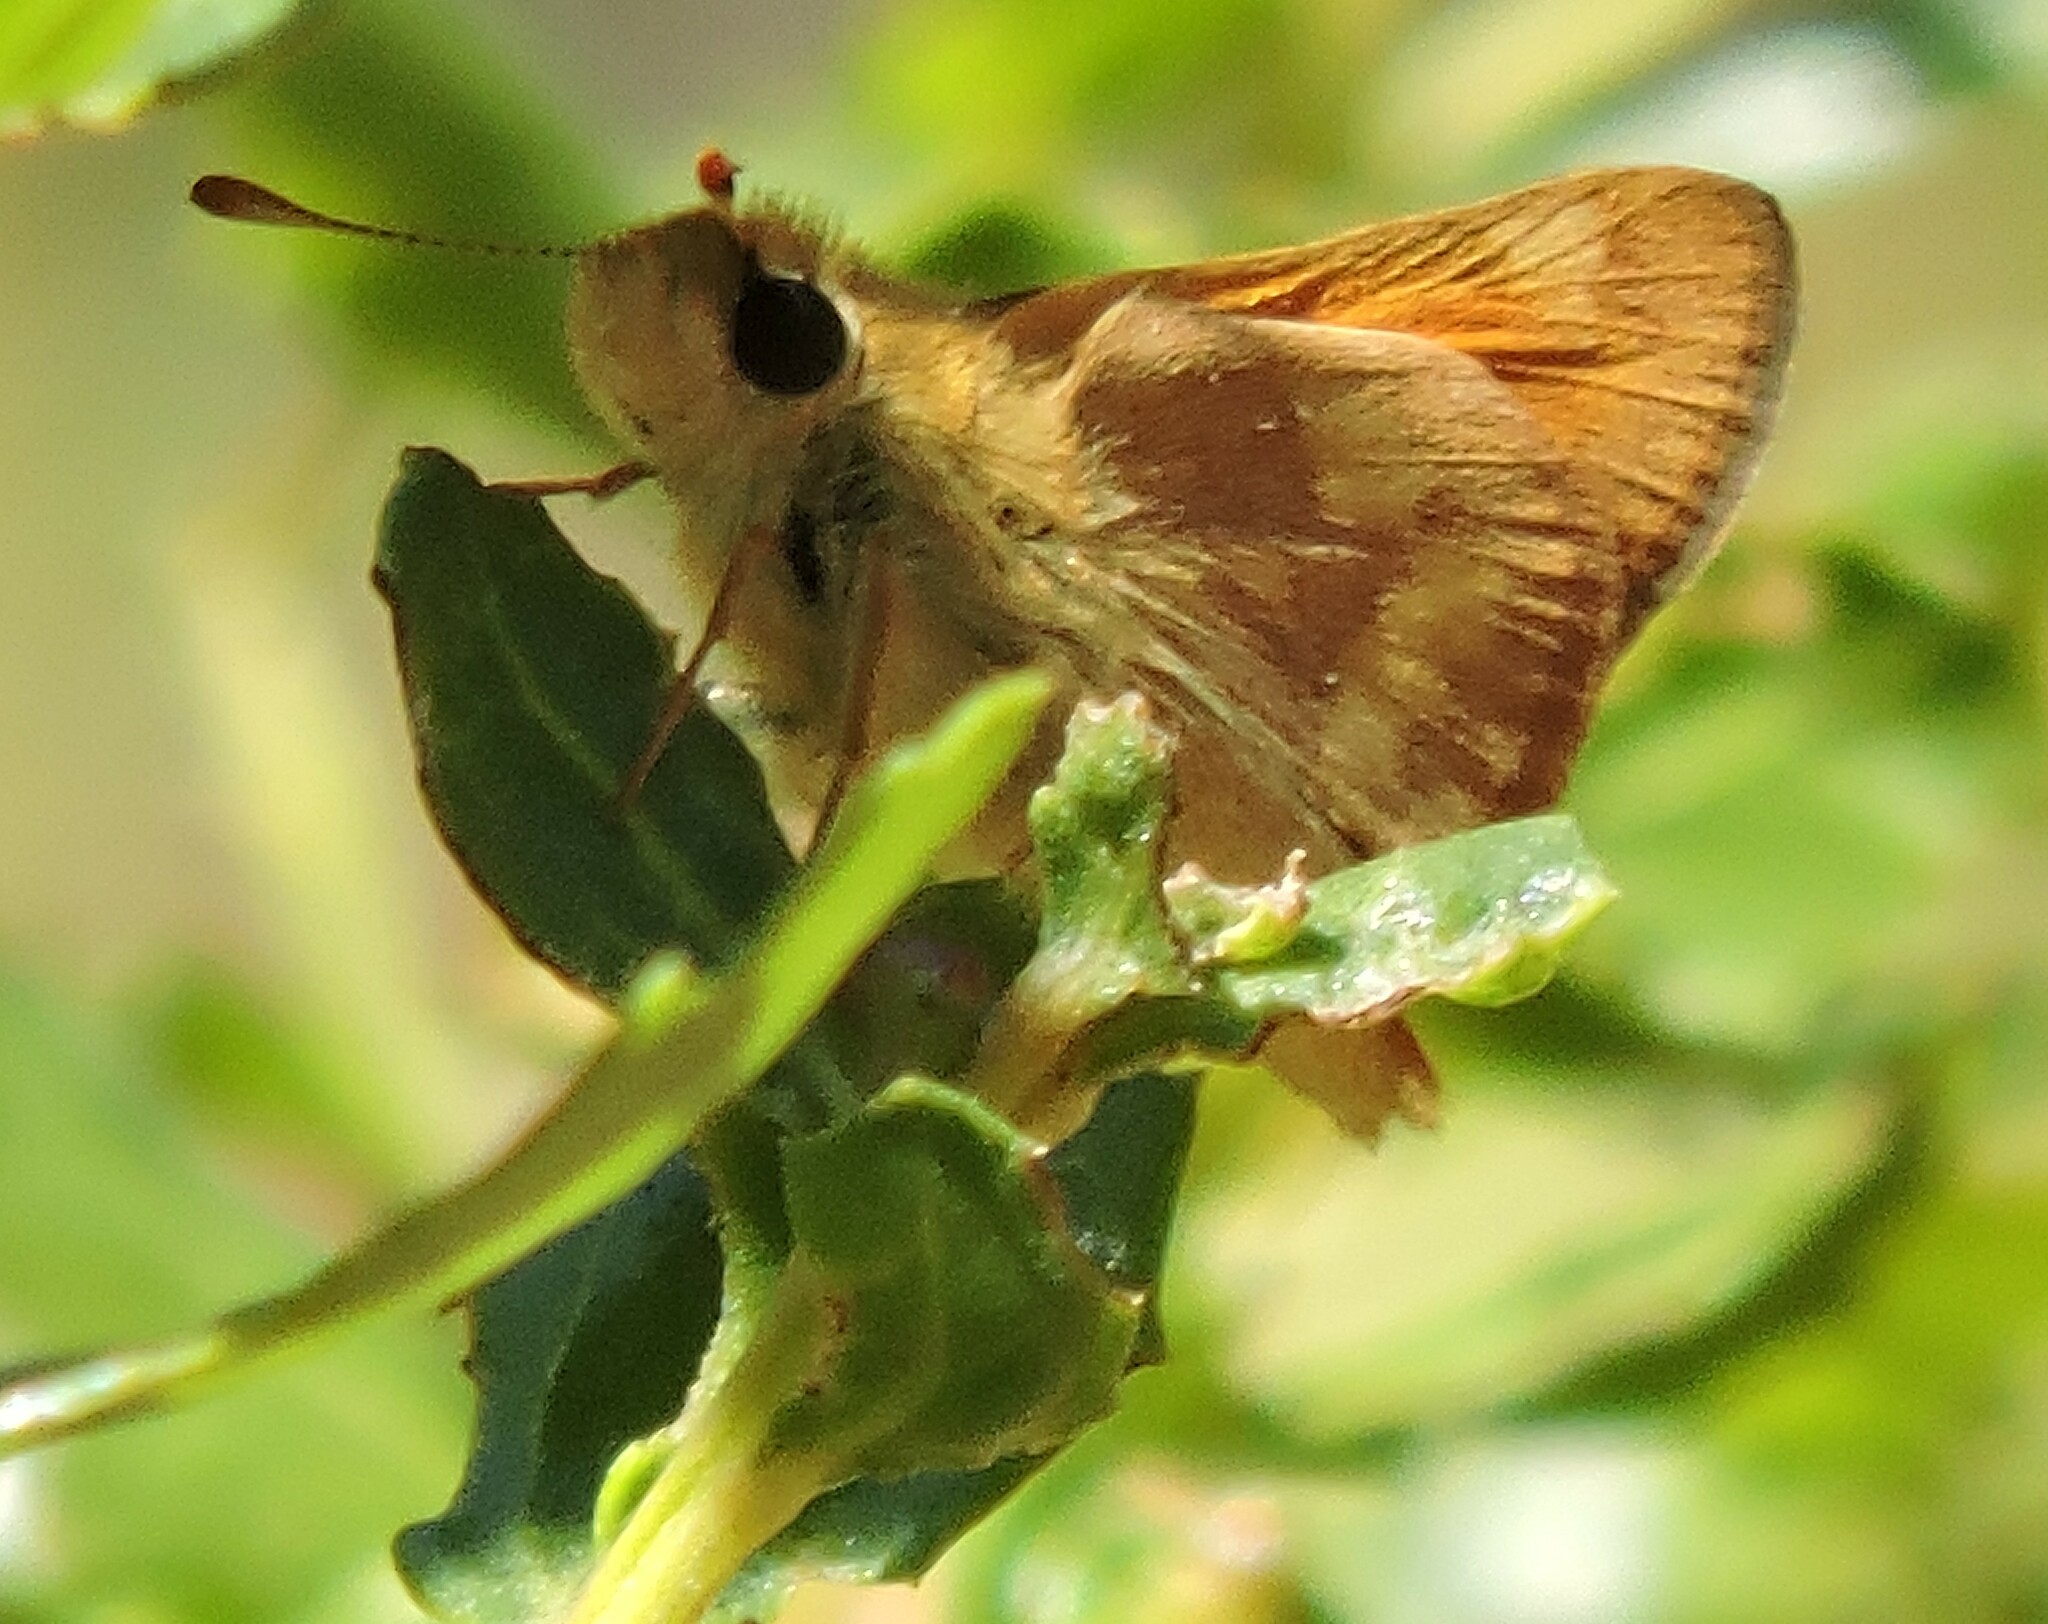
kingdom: Animalia
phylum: Arthropoda
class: Insecta
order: Lepidoptera
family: Hesperiidae
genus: Ochlodes
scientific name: Ochlodes sylvanoides
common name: Woodland skipper
